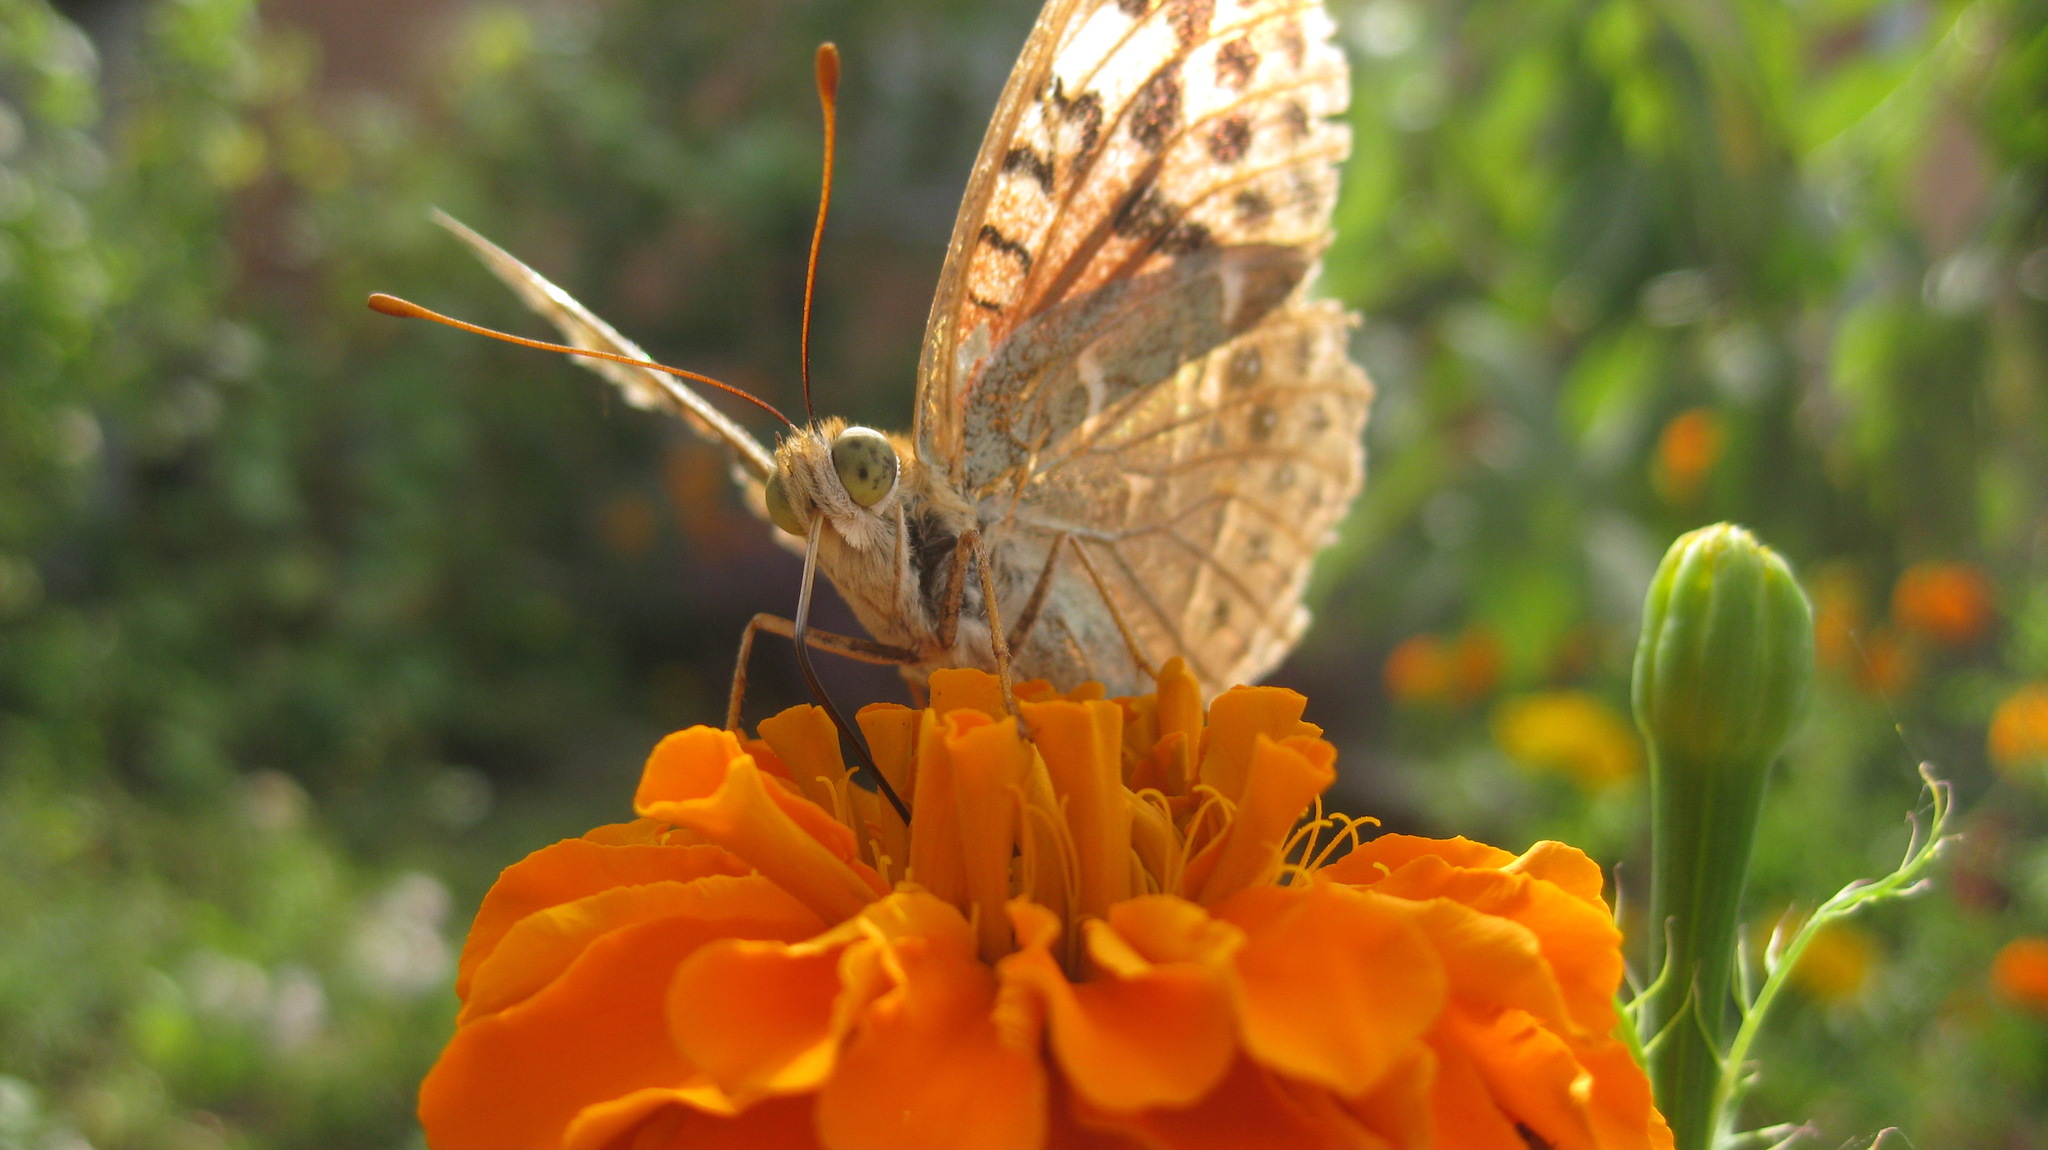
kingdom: Animalia
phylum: Arthropoda
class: Insecta
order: Lepidoptera
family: Nymphalidae
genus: Damora
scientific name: Damora pandora
